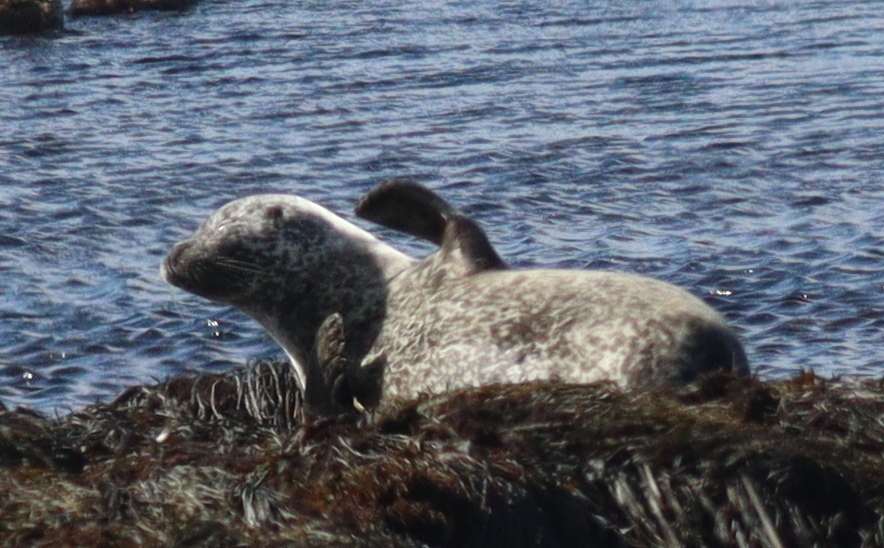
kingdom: Animalia
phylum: Chordata
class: Mammalia
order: Carnivora
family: Phocidae
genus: Phoca
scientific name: Phoca vitulina
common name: Harbor seal
